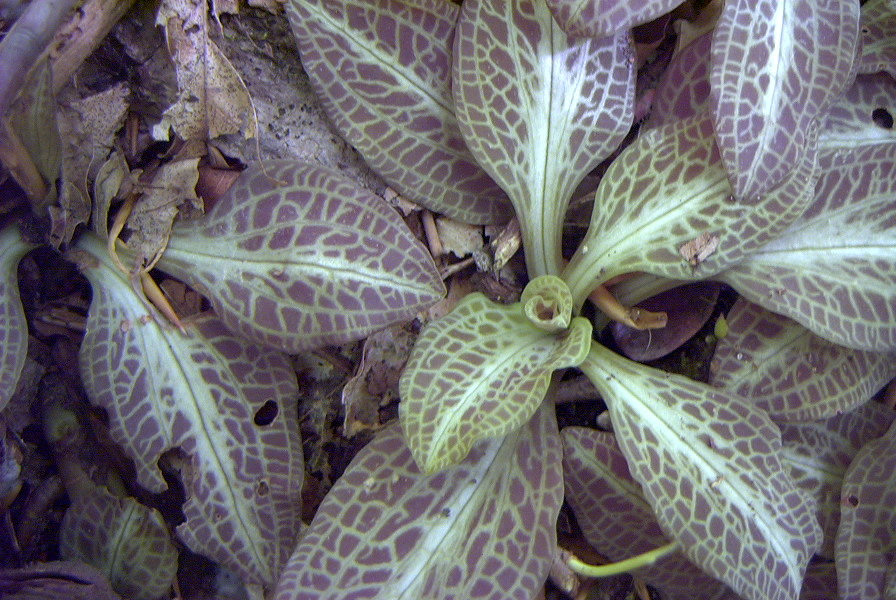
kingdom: Plantae
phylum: Tracheophyta
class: Liliopsida
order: Asparagales
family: Orchidaceae
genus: Goodyera
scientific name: Goodyera pubescens
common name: Downy rattlesnake-plantain
